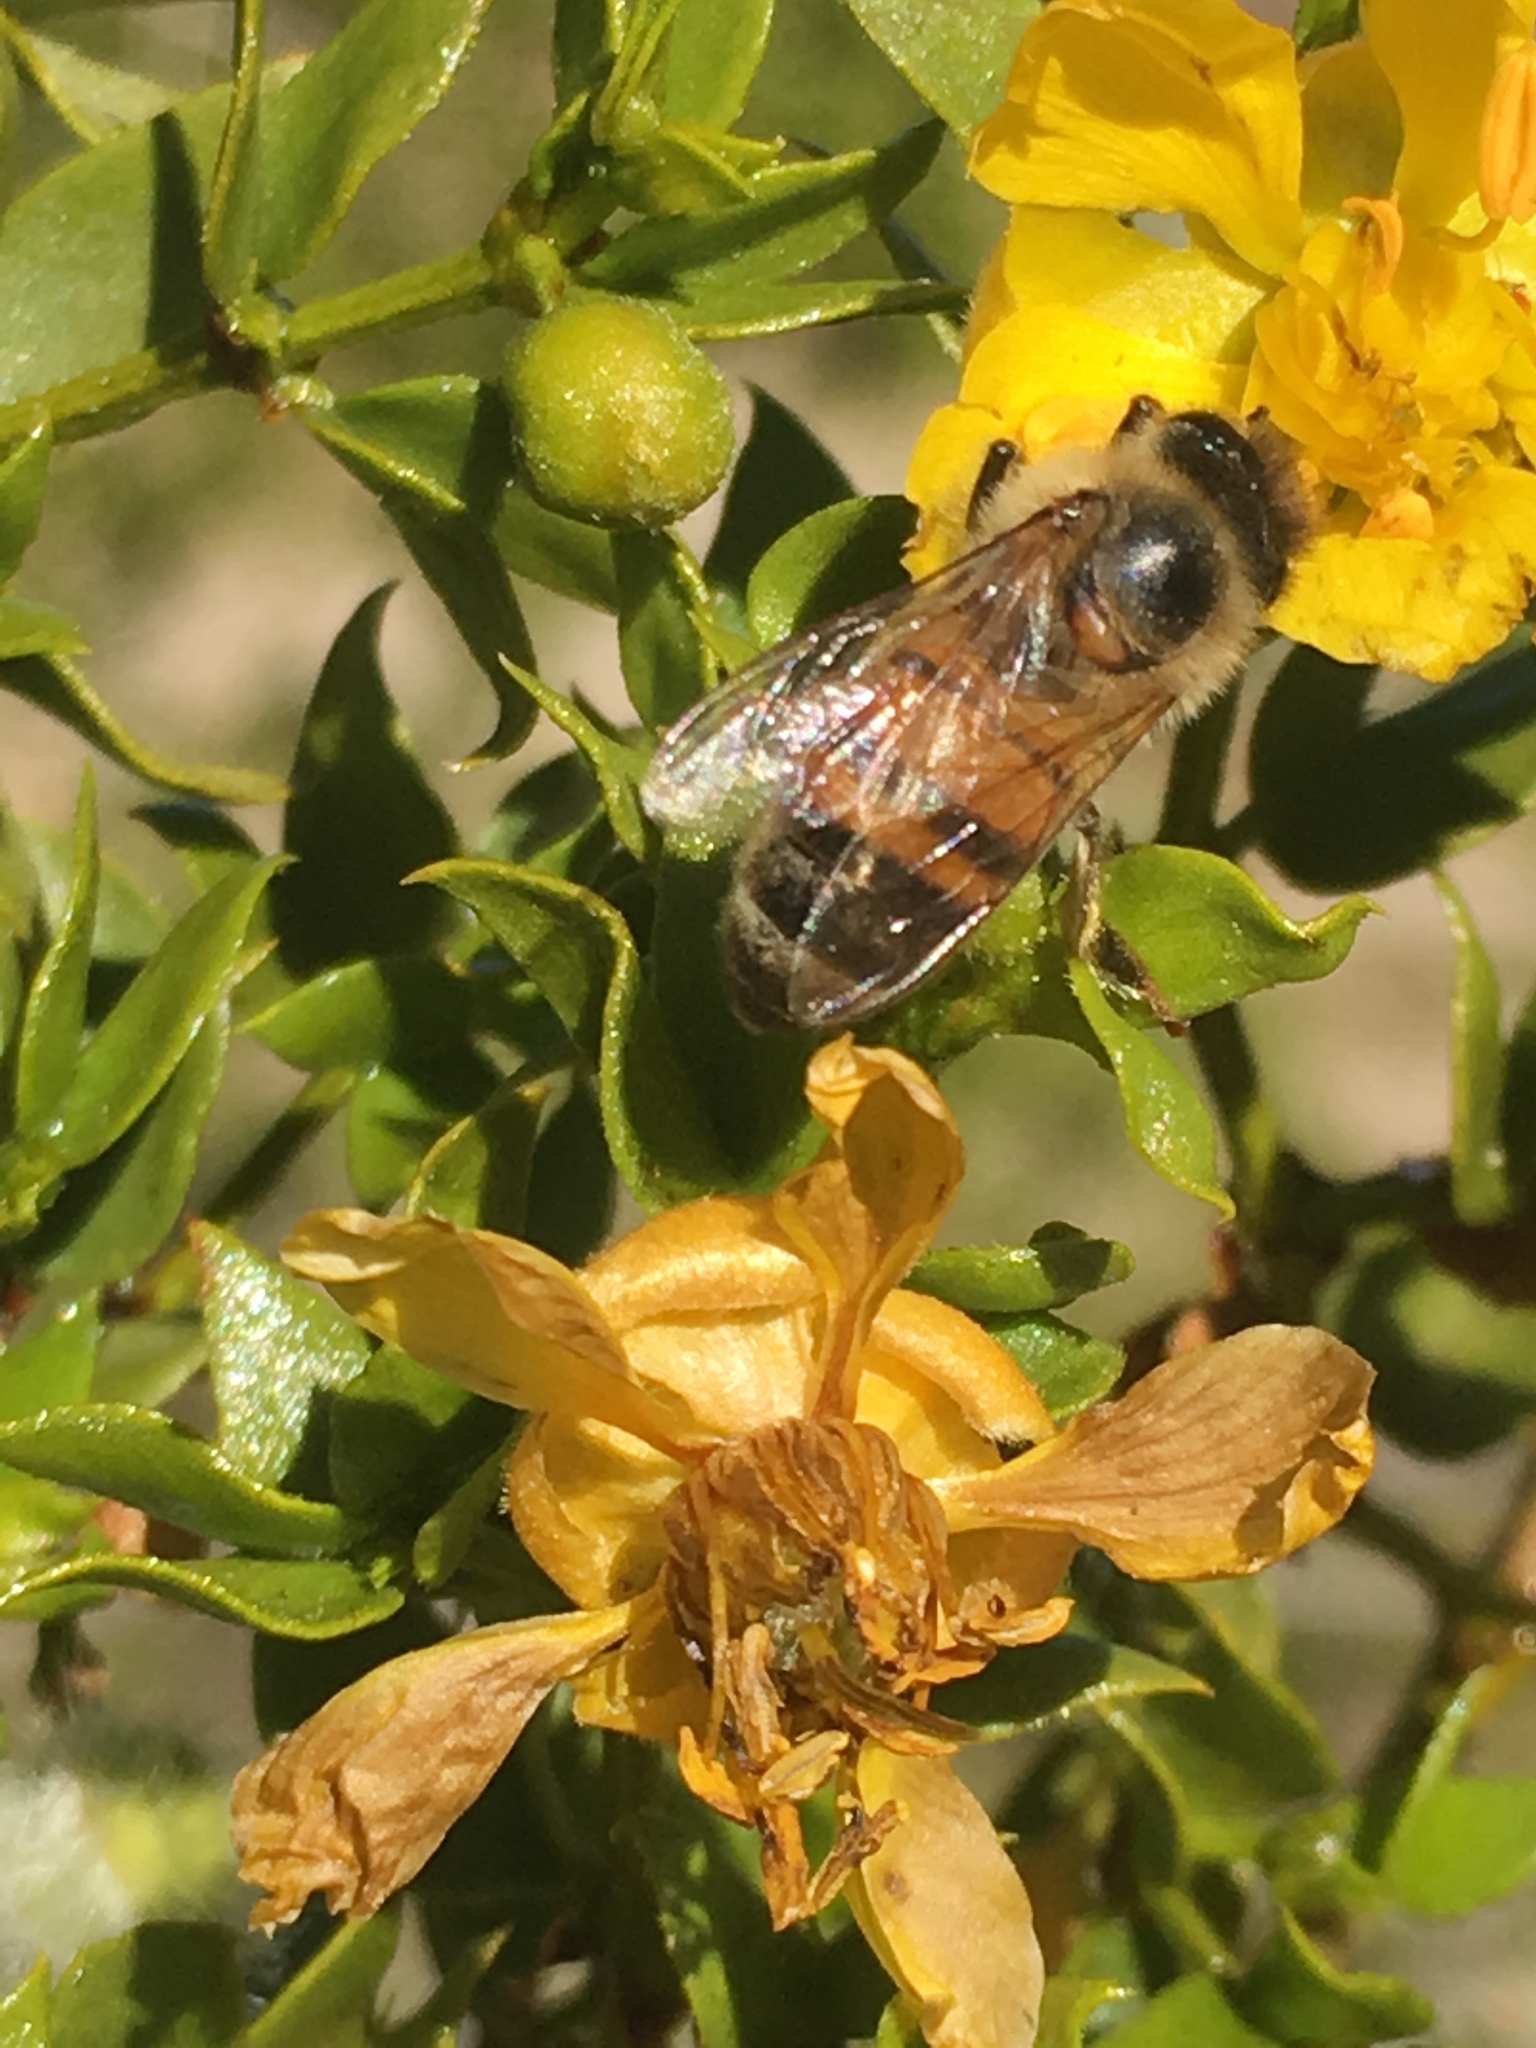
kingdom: Animalia
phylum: Arthropoda
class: Insecta
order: Hymenoptera
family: Apidae
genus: Apis
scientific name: Apis mellifera
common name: Honey bee
